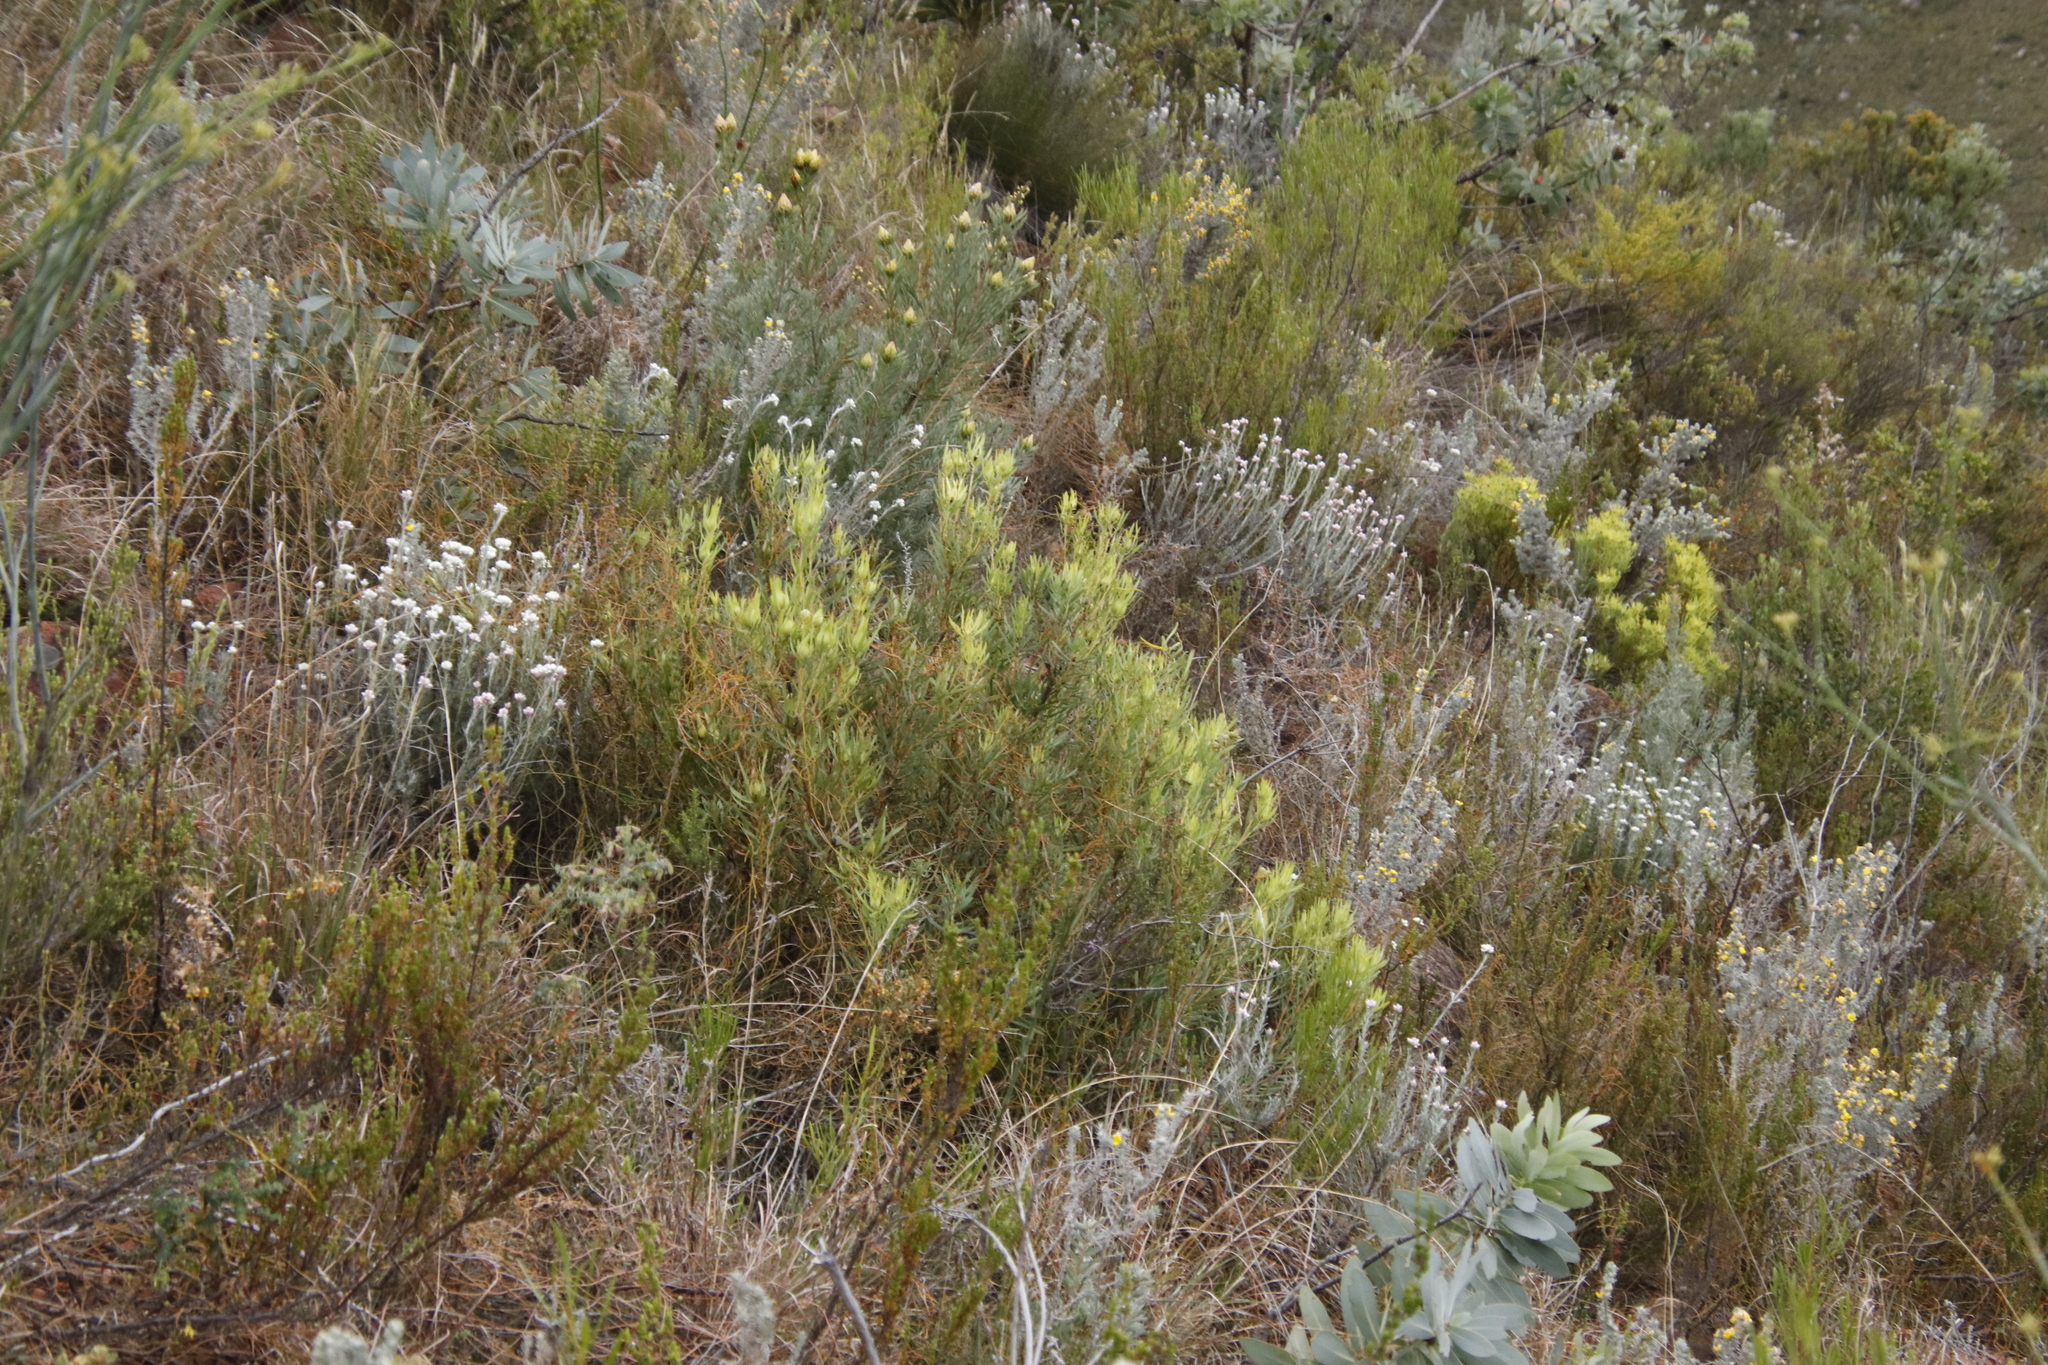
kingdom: Plantae
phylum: Tracheophyta
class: Magnoliopsida
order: Proteales
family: Proteaceae
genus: Leucadendron
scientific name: Leucadendron salignum
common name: Common sunshine conebush
